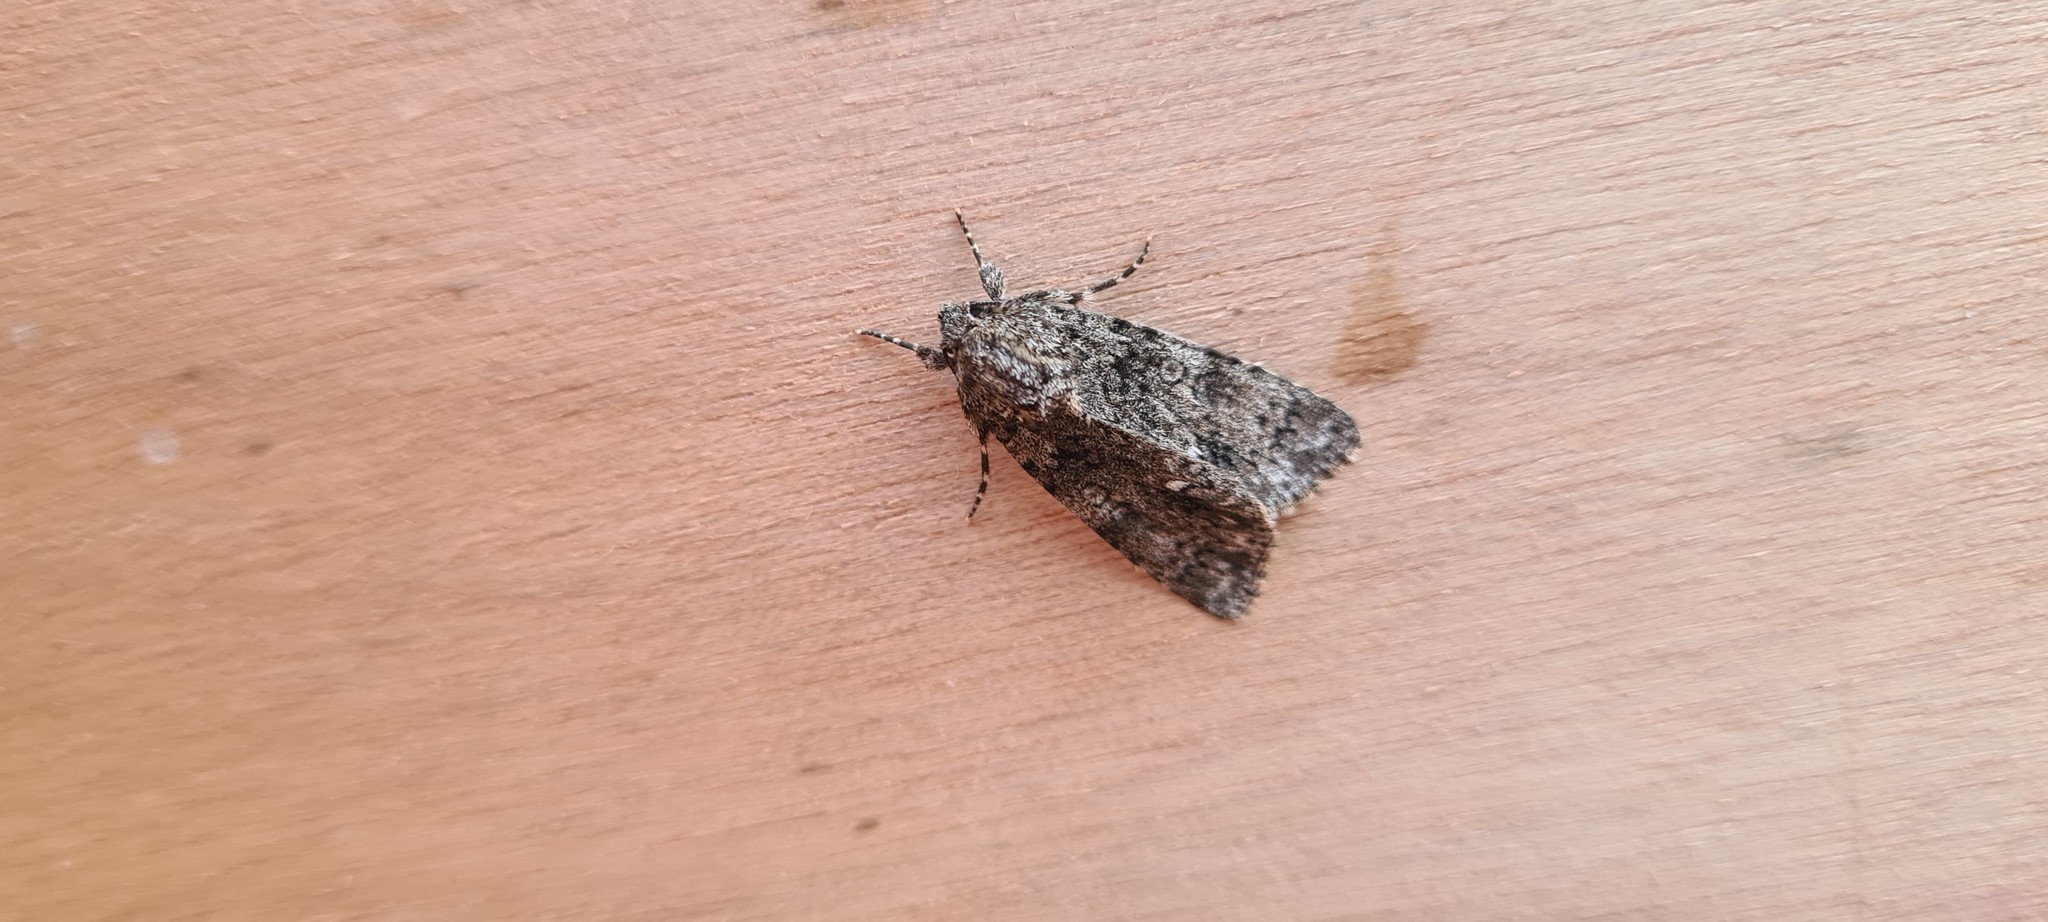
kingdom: Animalia
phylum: Arthropoda
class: Insecta
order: Lepidoptera
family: Noctuidae
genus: Acronicta
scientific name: Acronicta rumicis
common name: Knot grass
